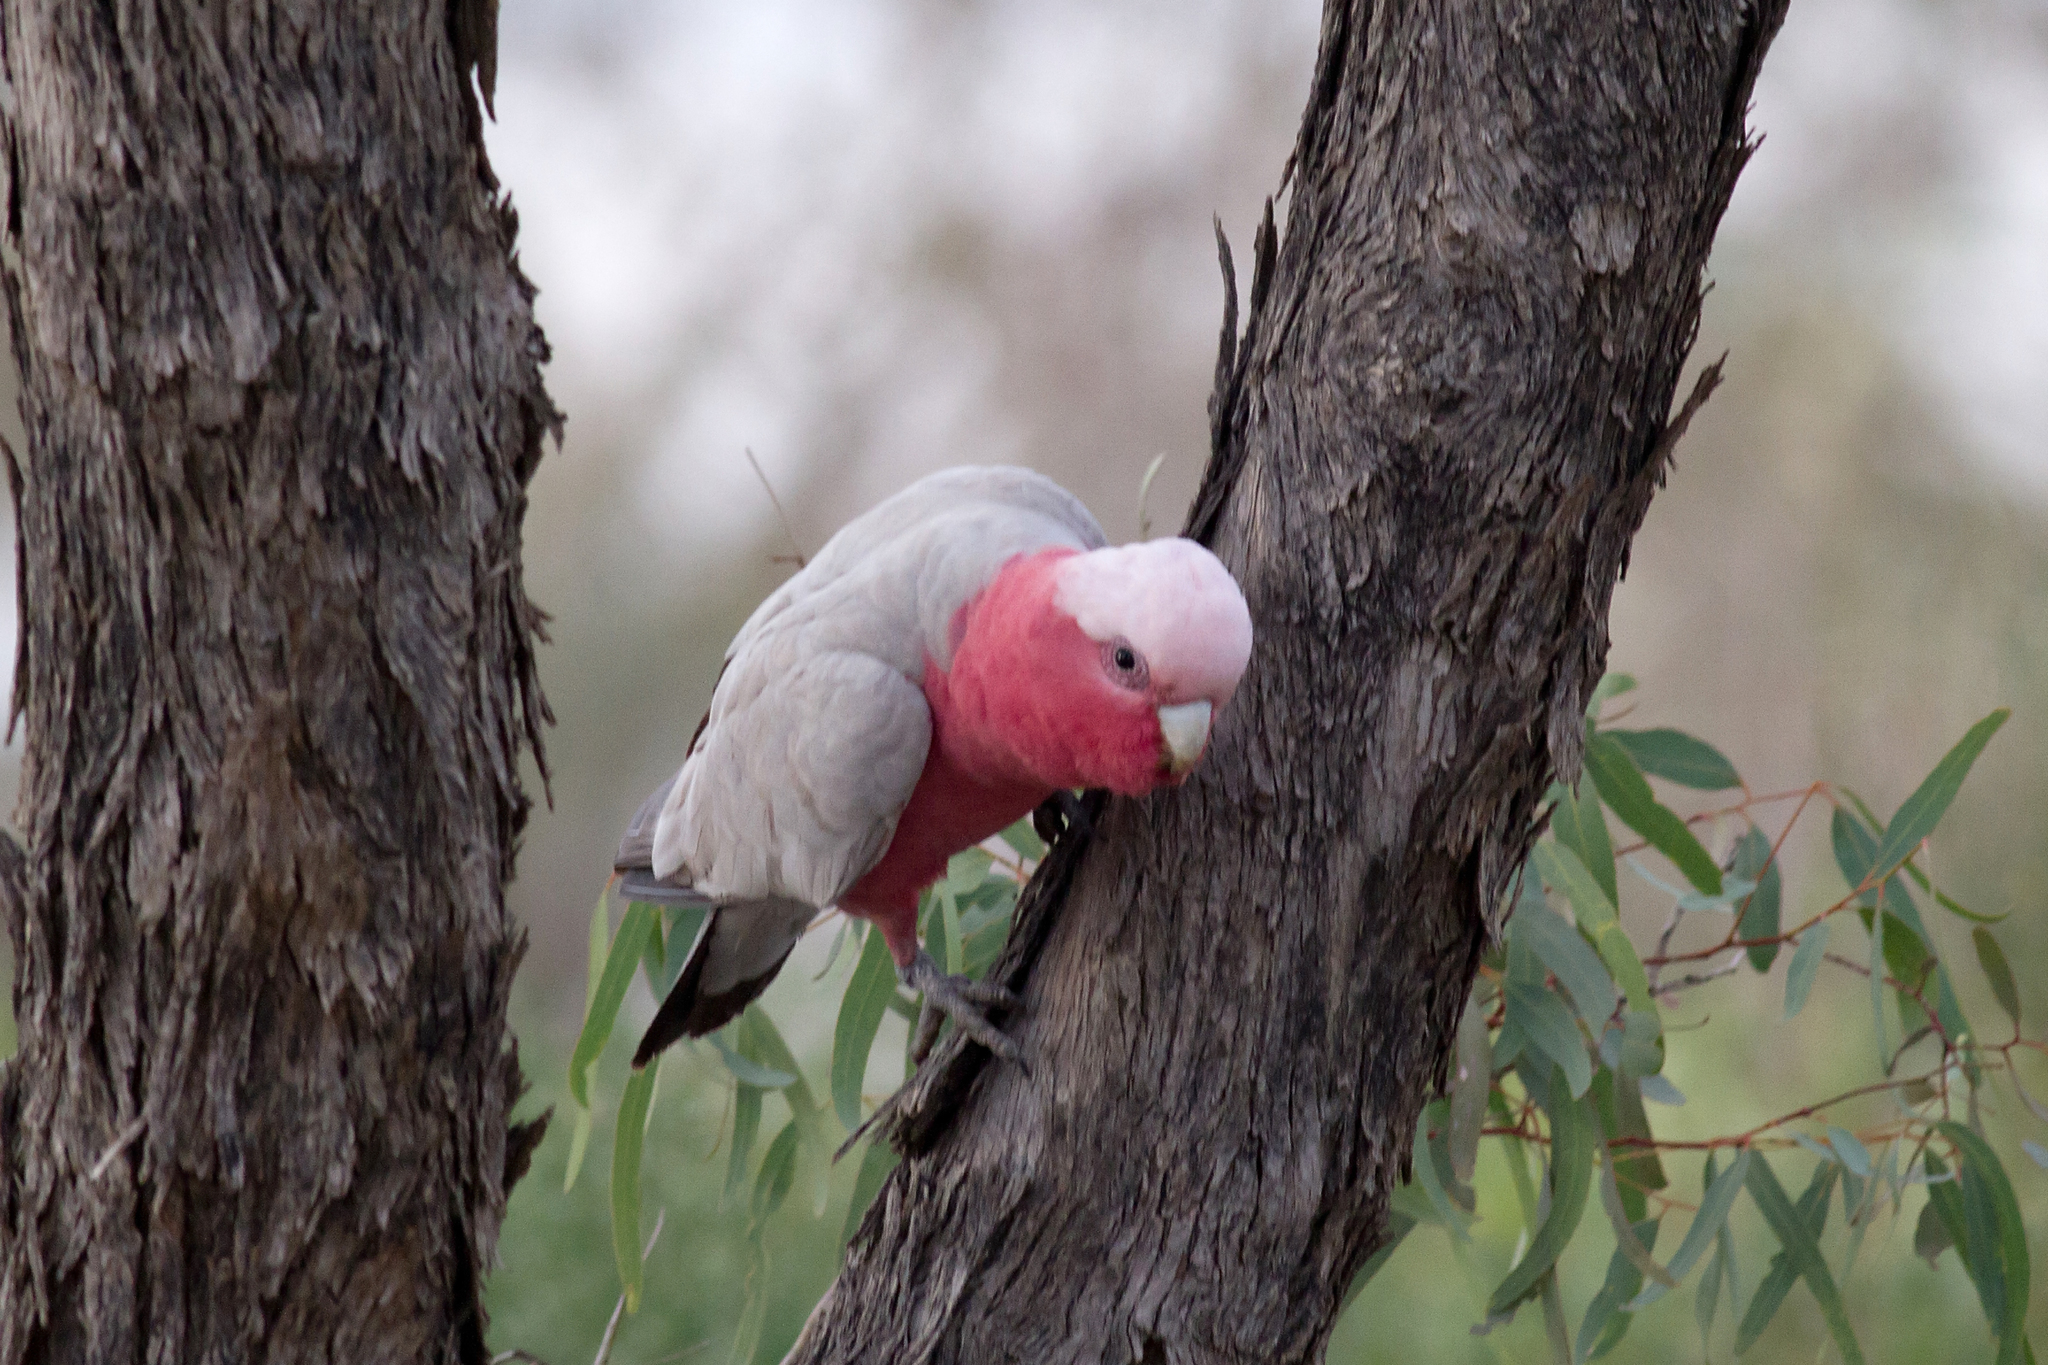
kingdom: Animalia
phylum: Chordata
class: Aves
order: Psittaciformes
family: Psittacidae
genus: Eolophus
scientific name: Eolophus roseicapilla
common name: Galah
